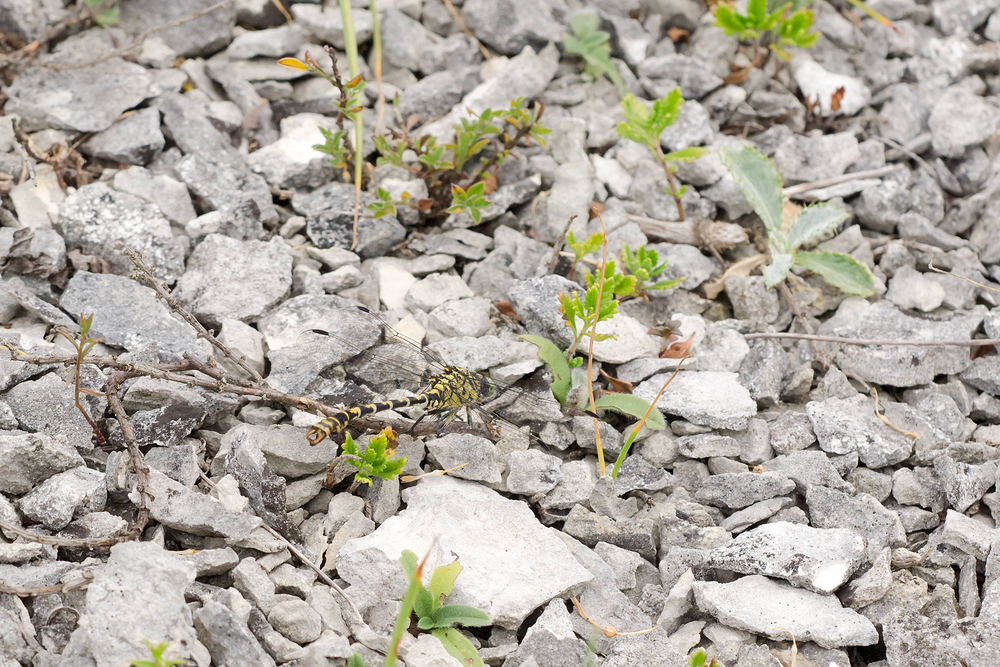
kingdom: Animalia
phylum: Arthropoda
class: Insecta
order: Odonata
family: Gomphidae
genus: Onychogomphus
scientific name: Onychogomphus forcipatus
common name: Small pincertail
